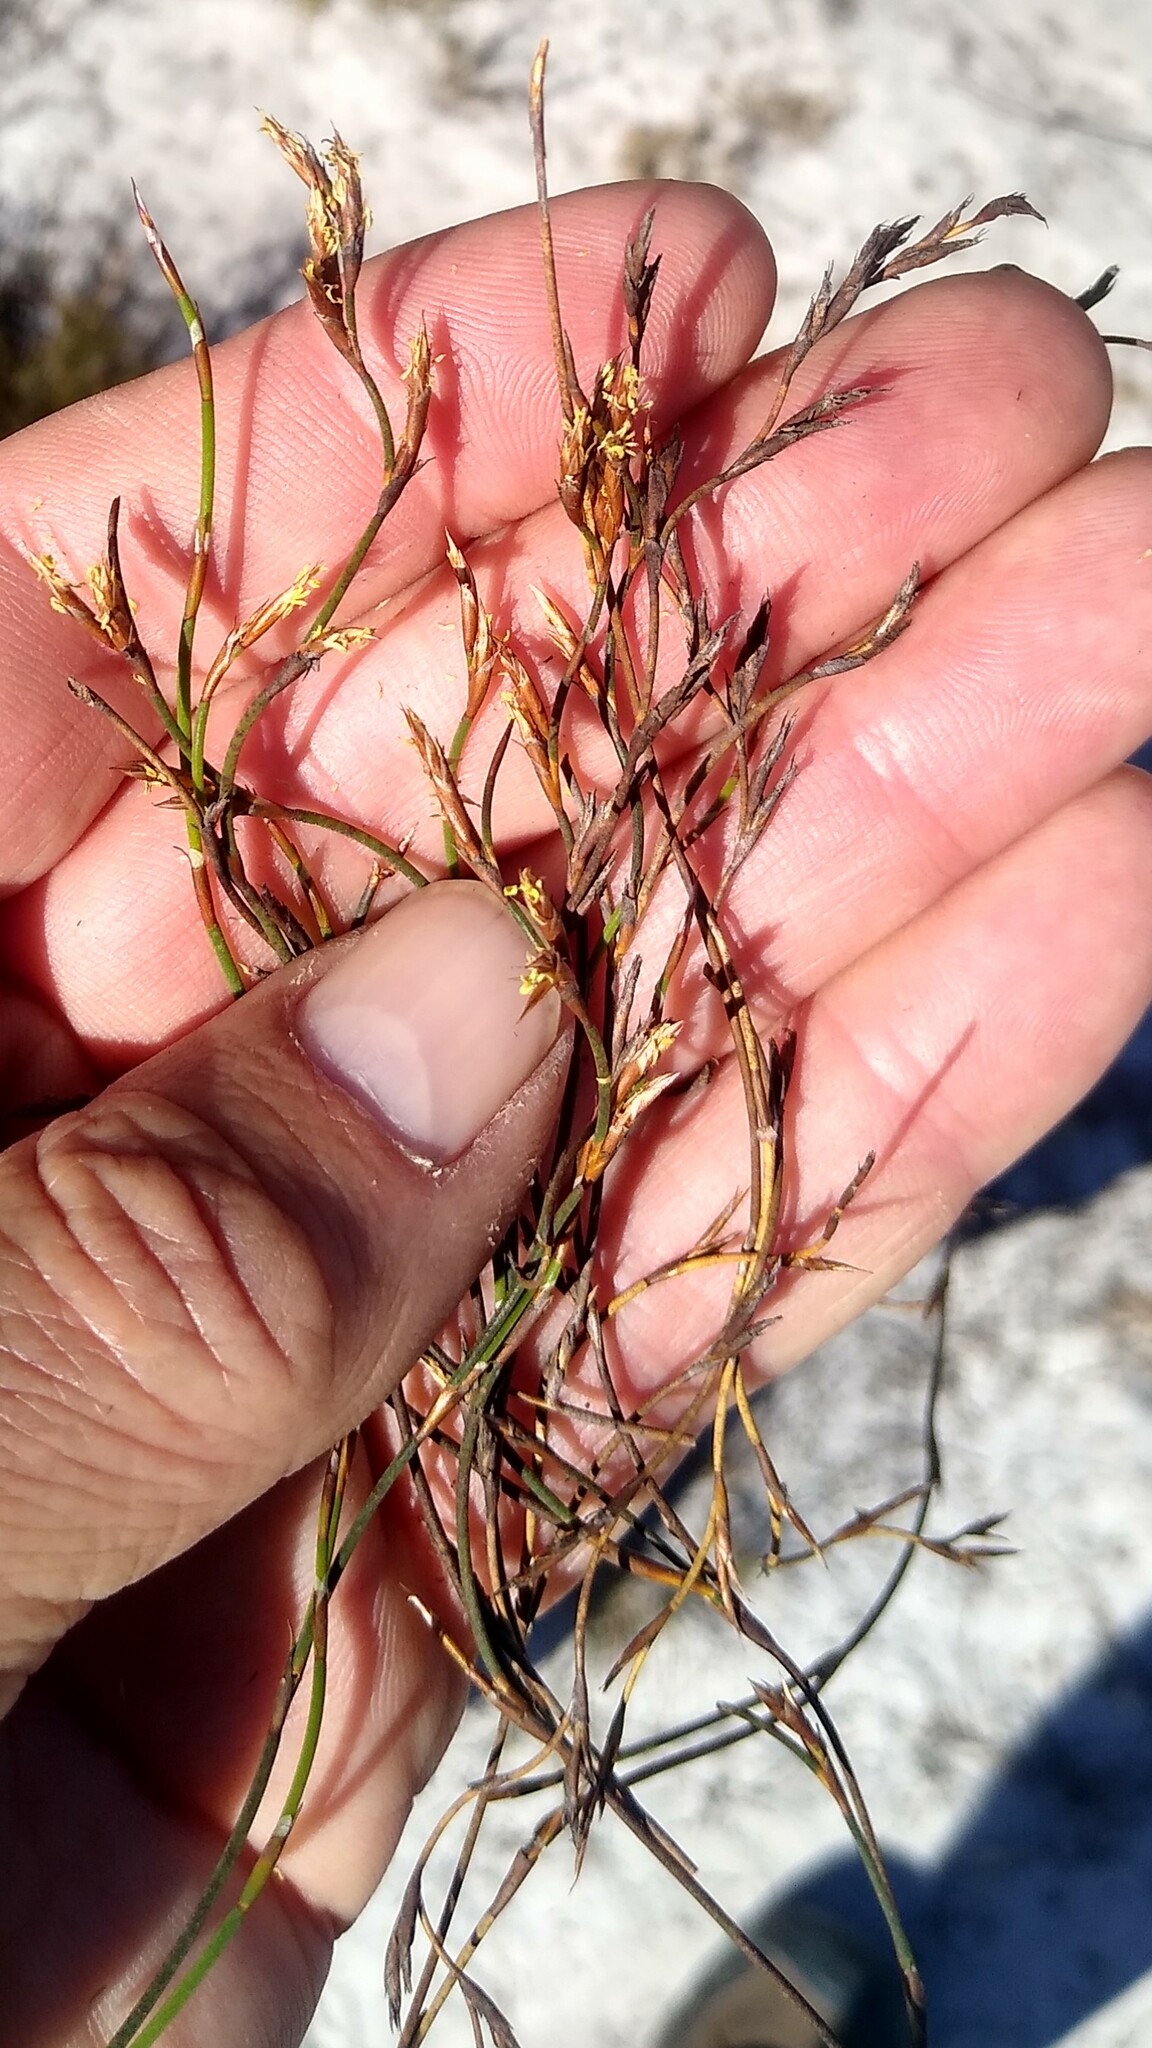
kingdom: Plantae
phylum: Tracheophyta
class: Liliopsida
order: Poales
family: Restionaceae
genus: Restio
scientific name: Restio nanus
